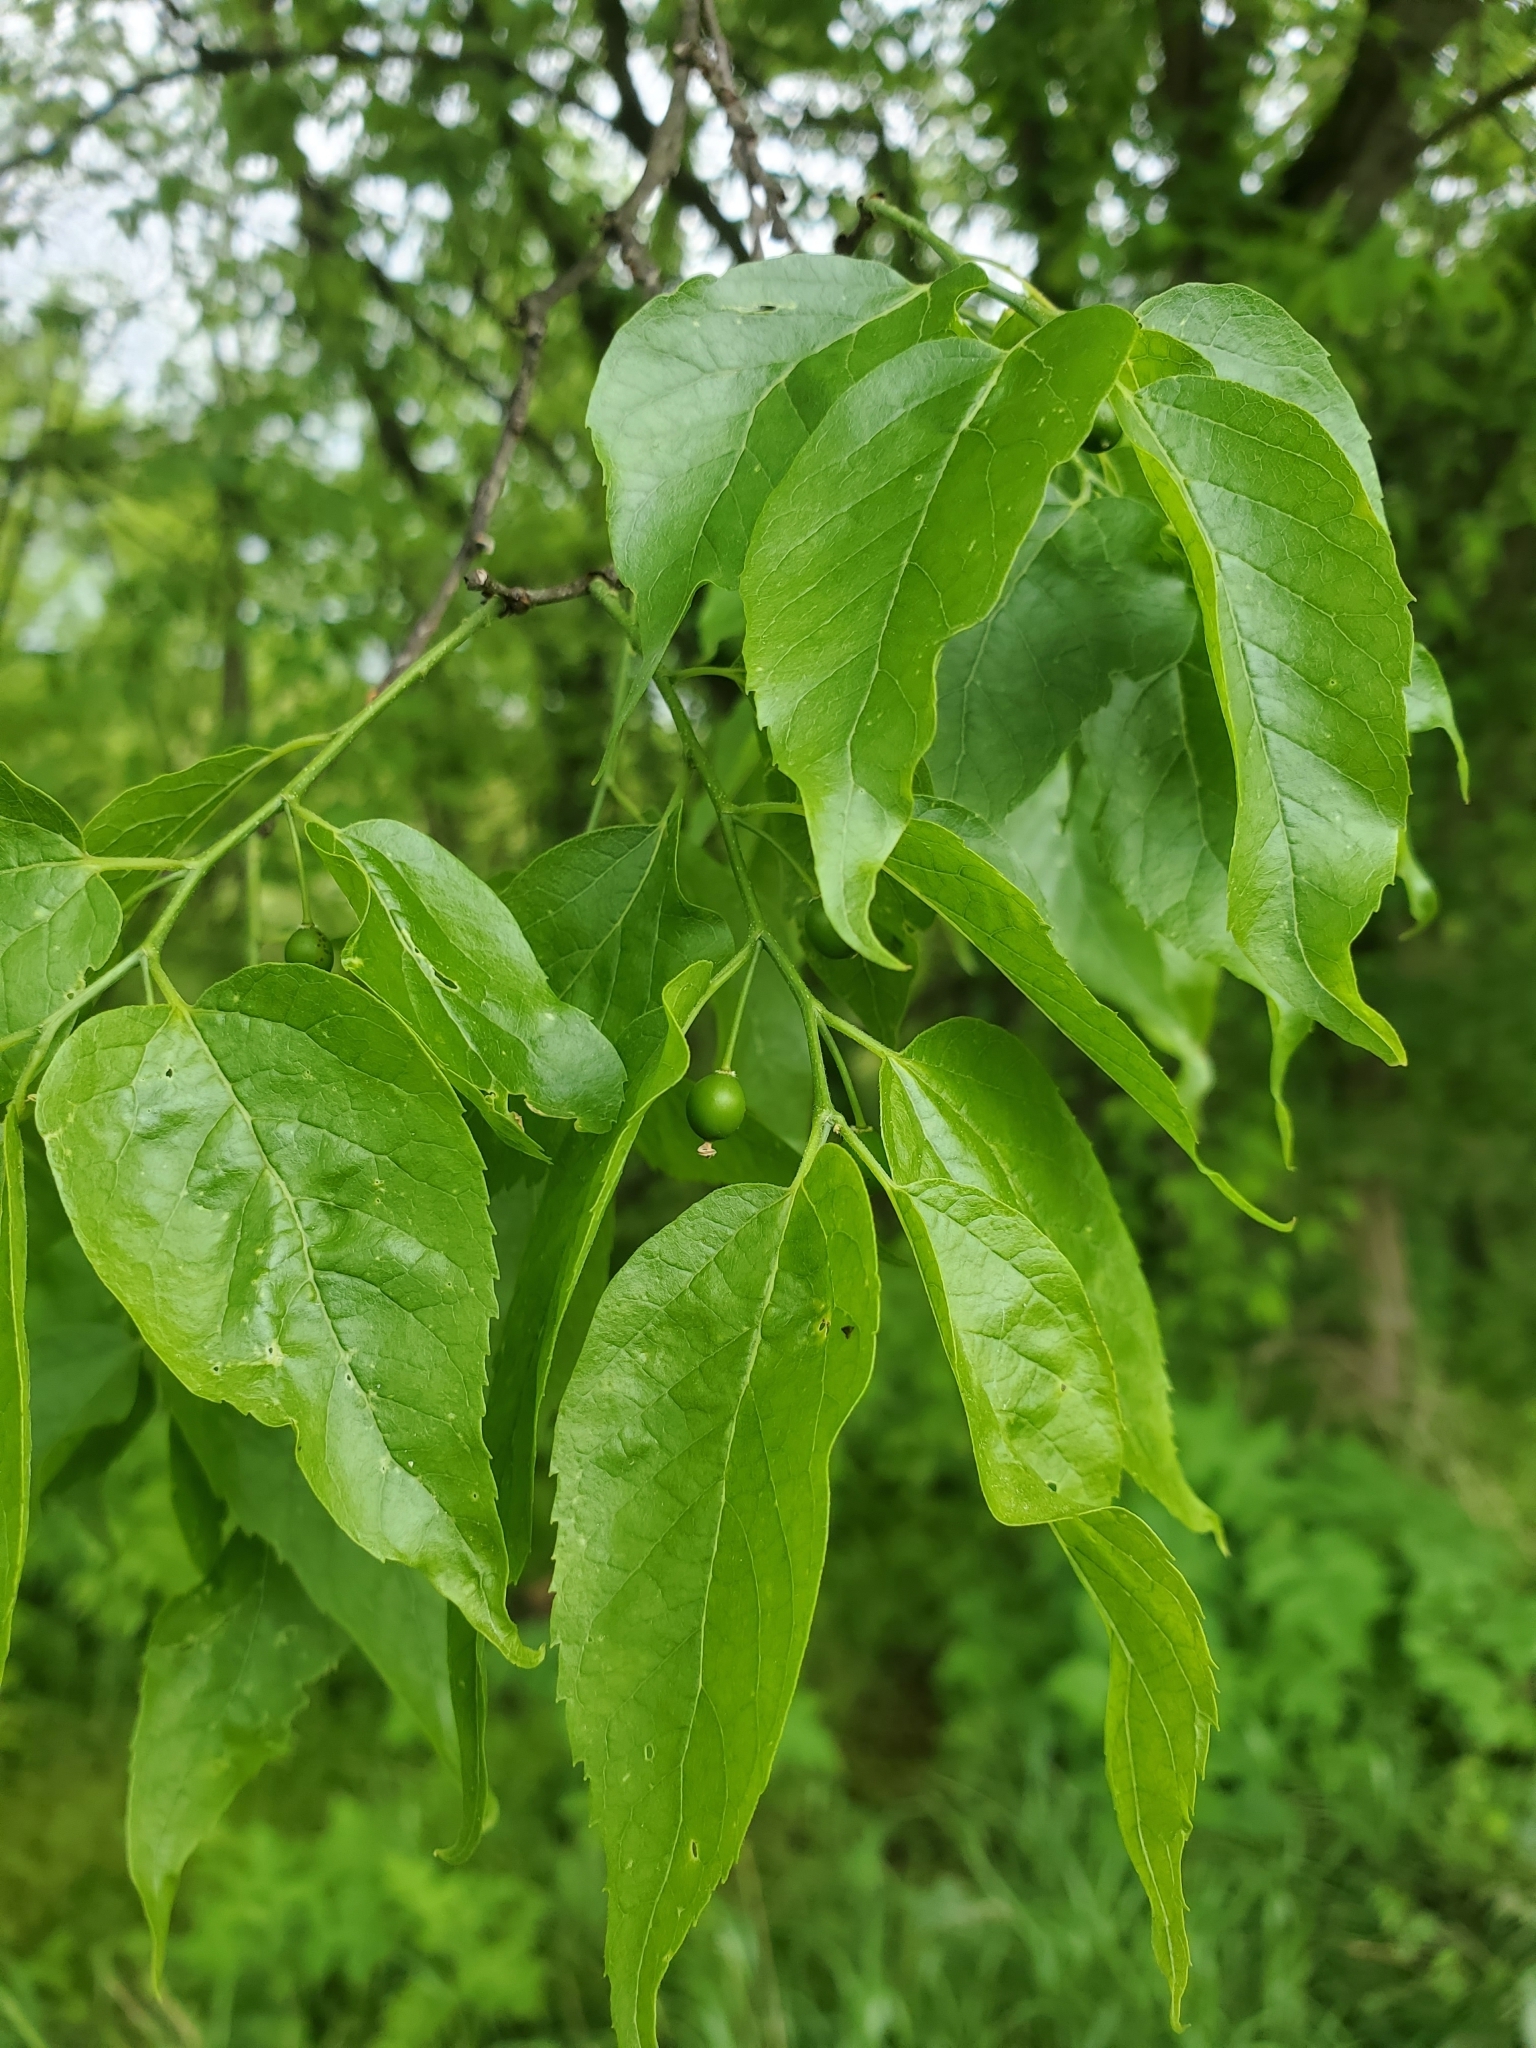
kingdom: Plantae
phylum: Tracheophyta
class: Magnoliopsida
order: Rosales
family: Cannabaceae
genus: Celtis
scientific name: Celtis laevigata
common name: Sugarberry
